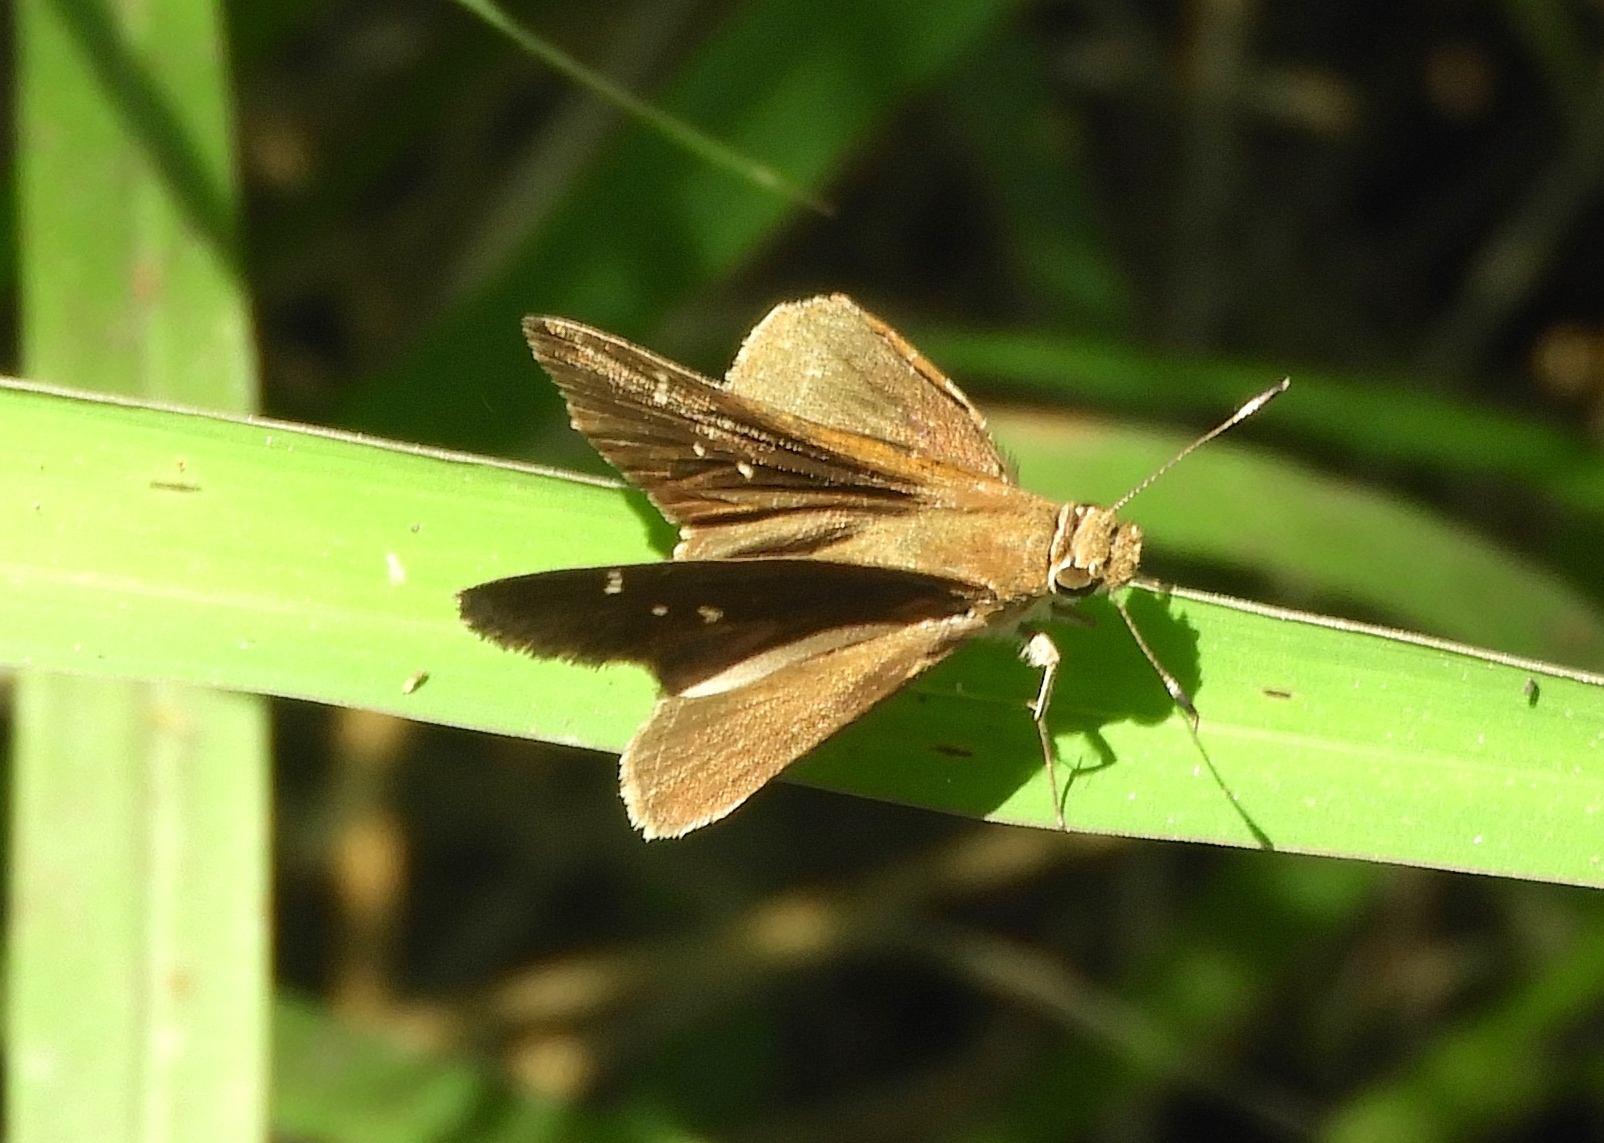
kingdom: Animalia
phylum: Arthropoda
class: Insecta
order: Lepidoptera
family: Hesperiidae
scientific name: Hesperiidae
